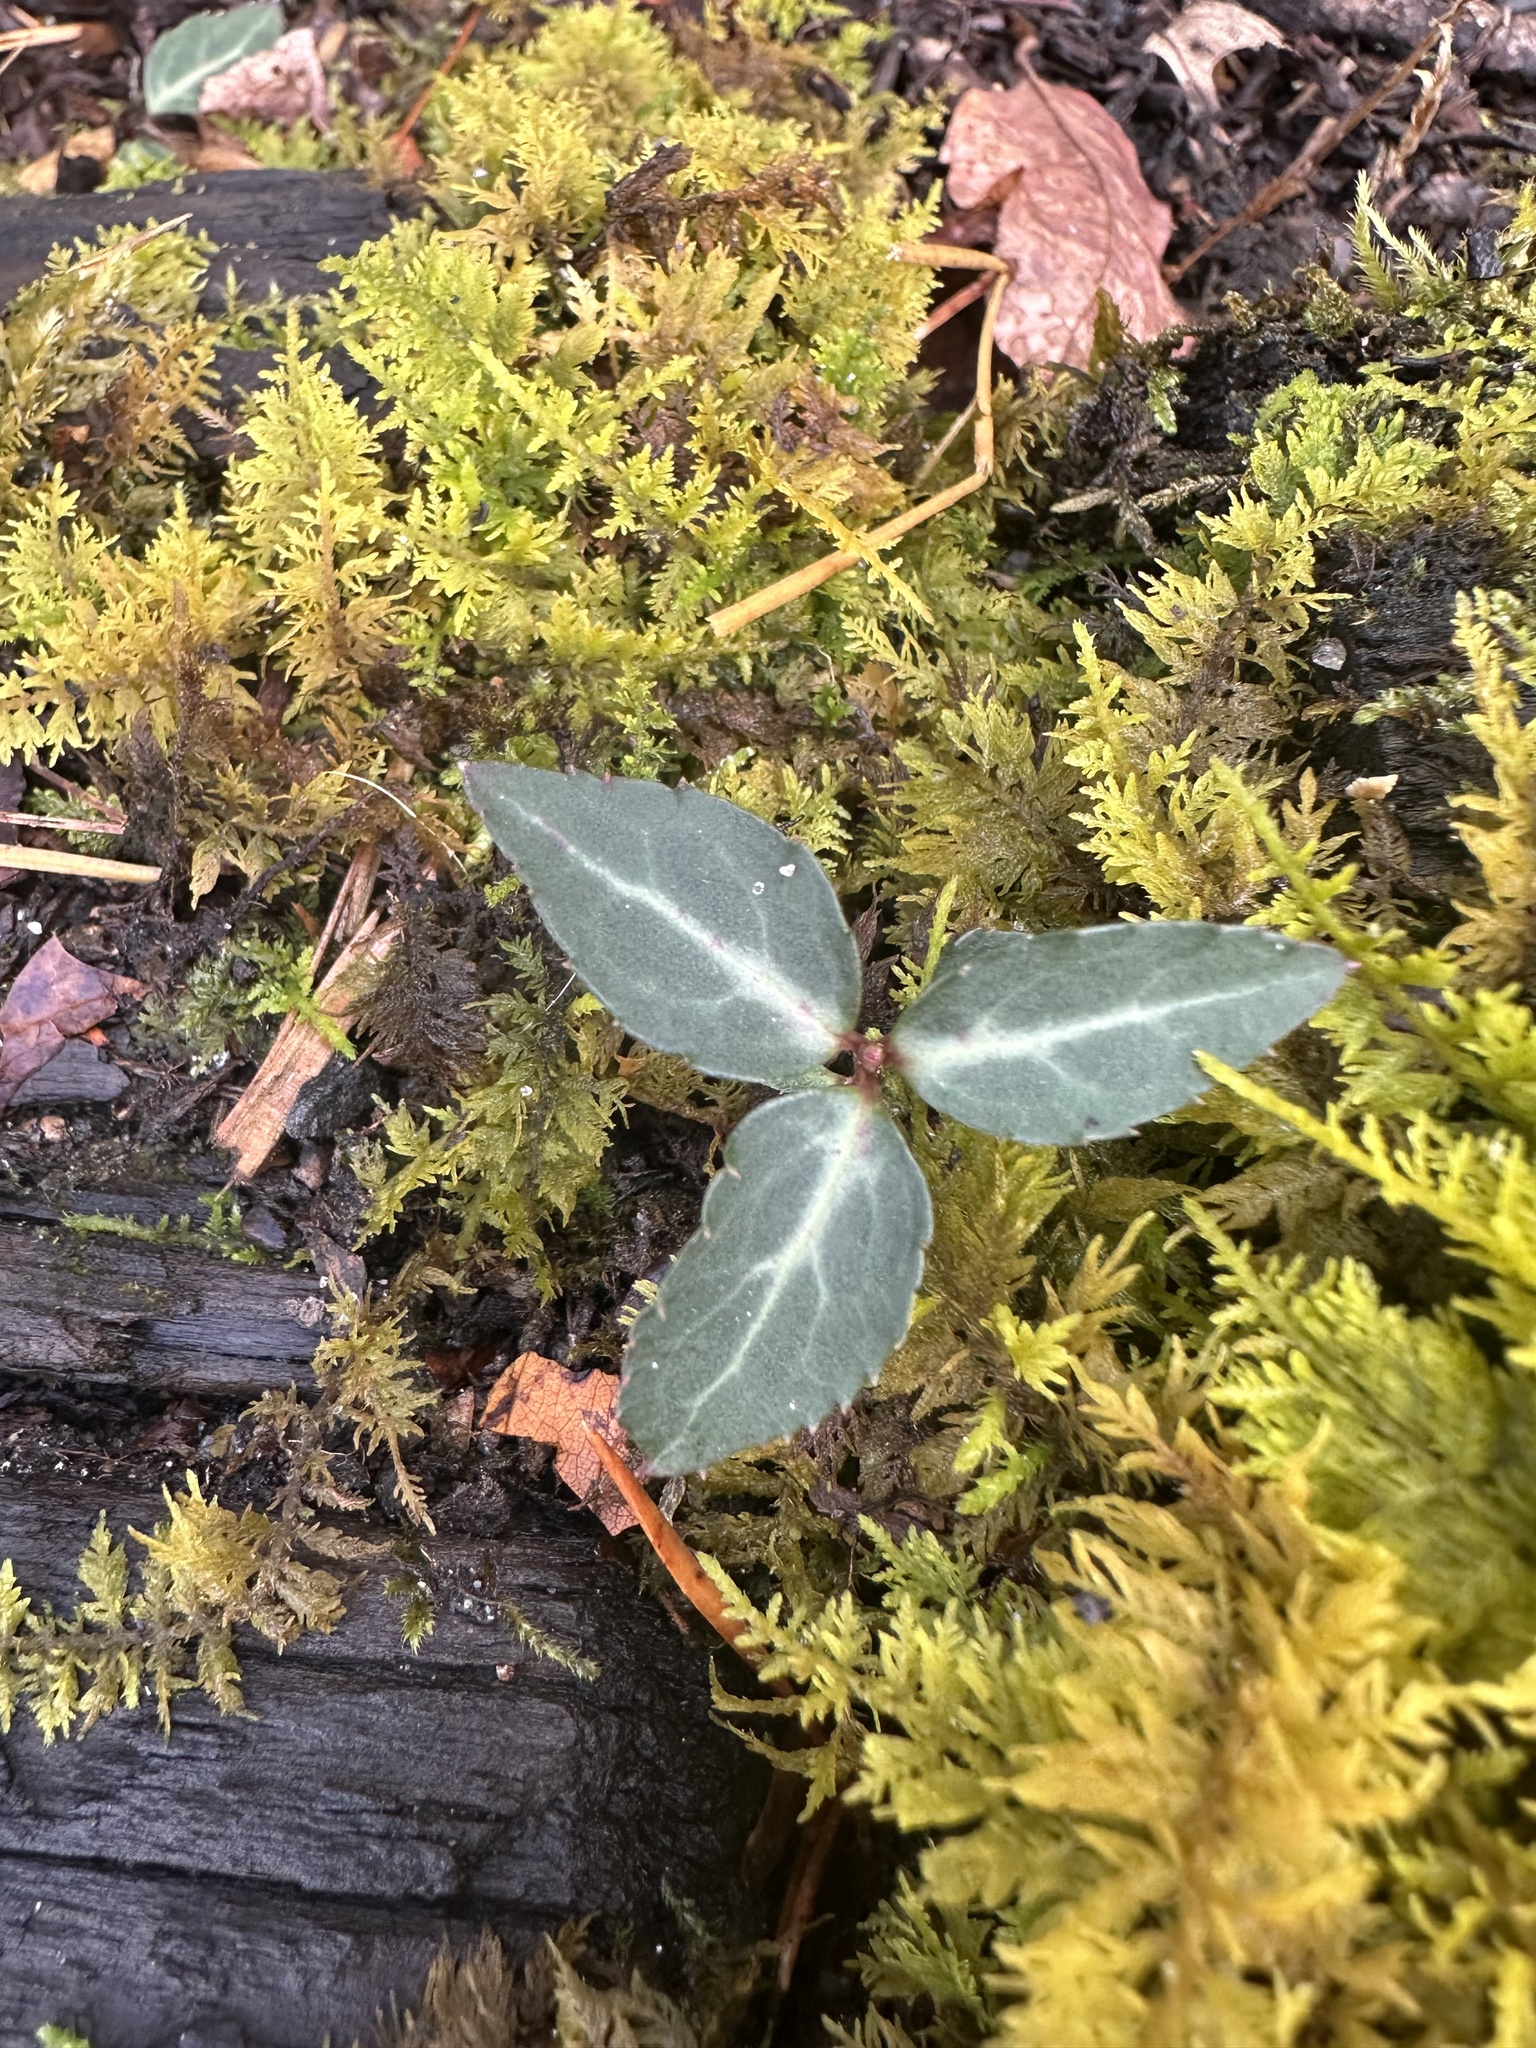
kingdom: Plantae
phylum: Tracheophyta
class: Magnoliopsida
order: Ericales
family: Ericaceae
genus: Chimaphila
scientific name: Chimaphila maculata
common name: Spotted pipsissewa
